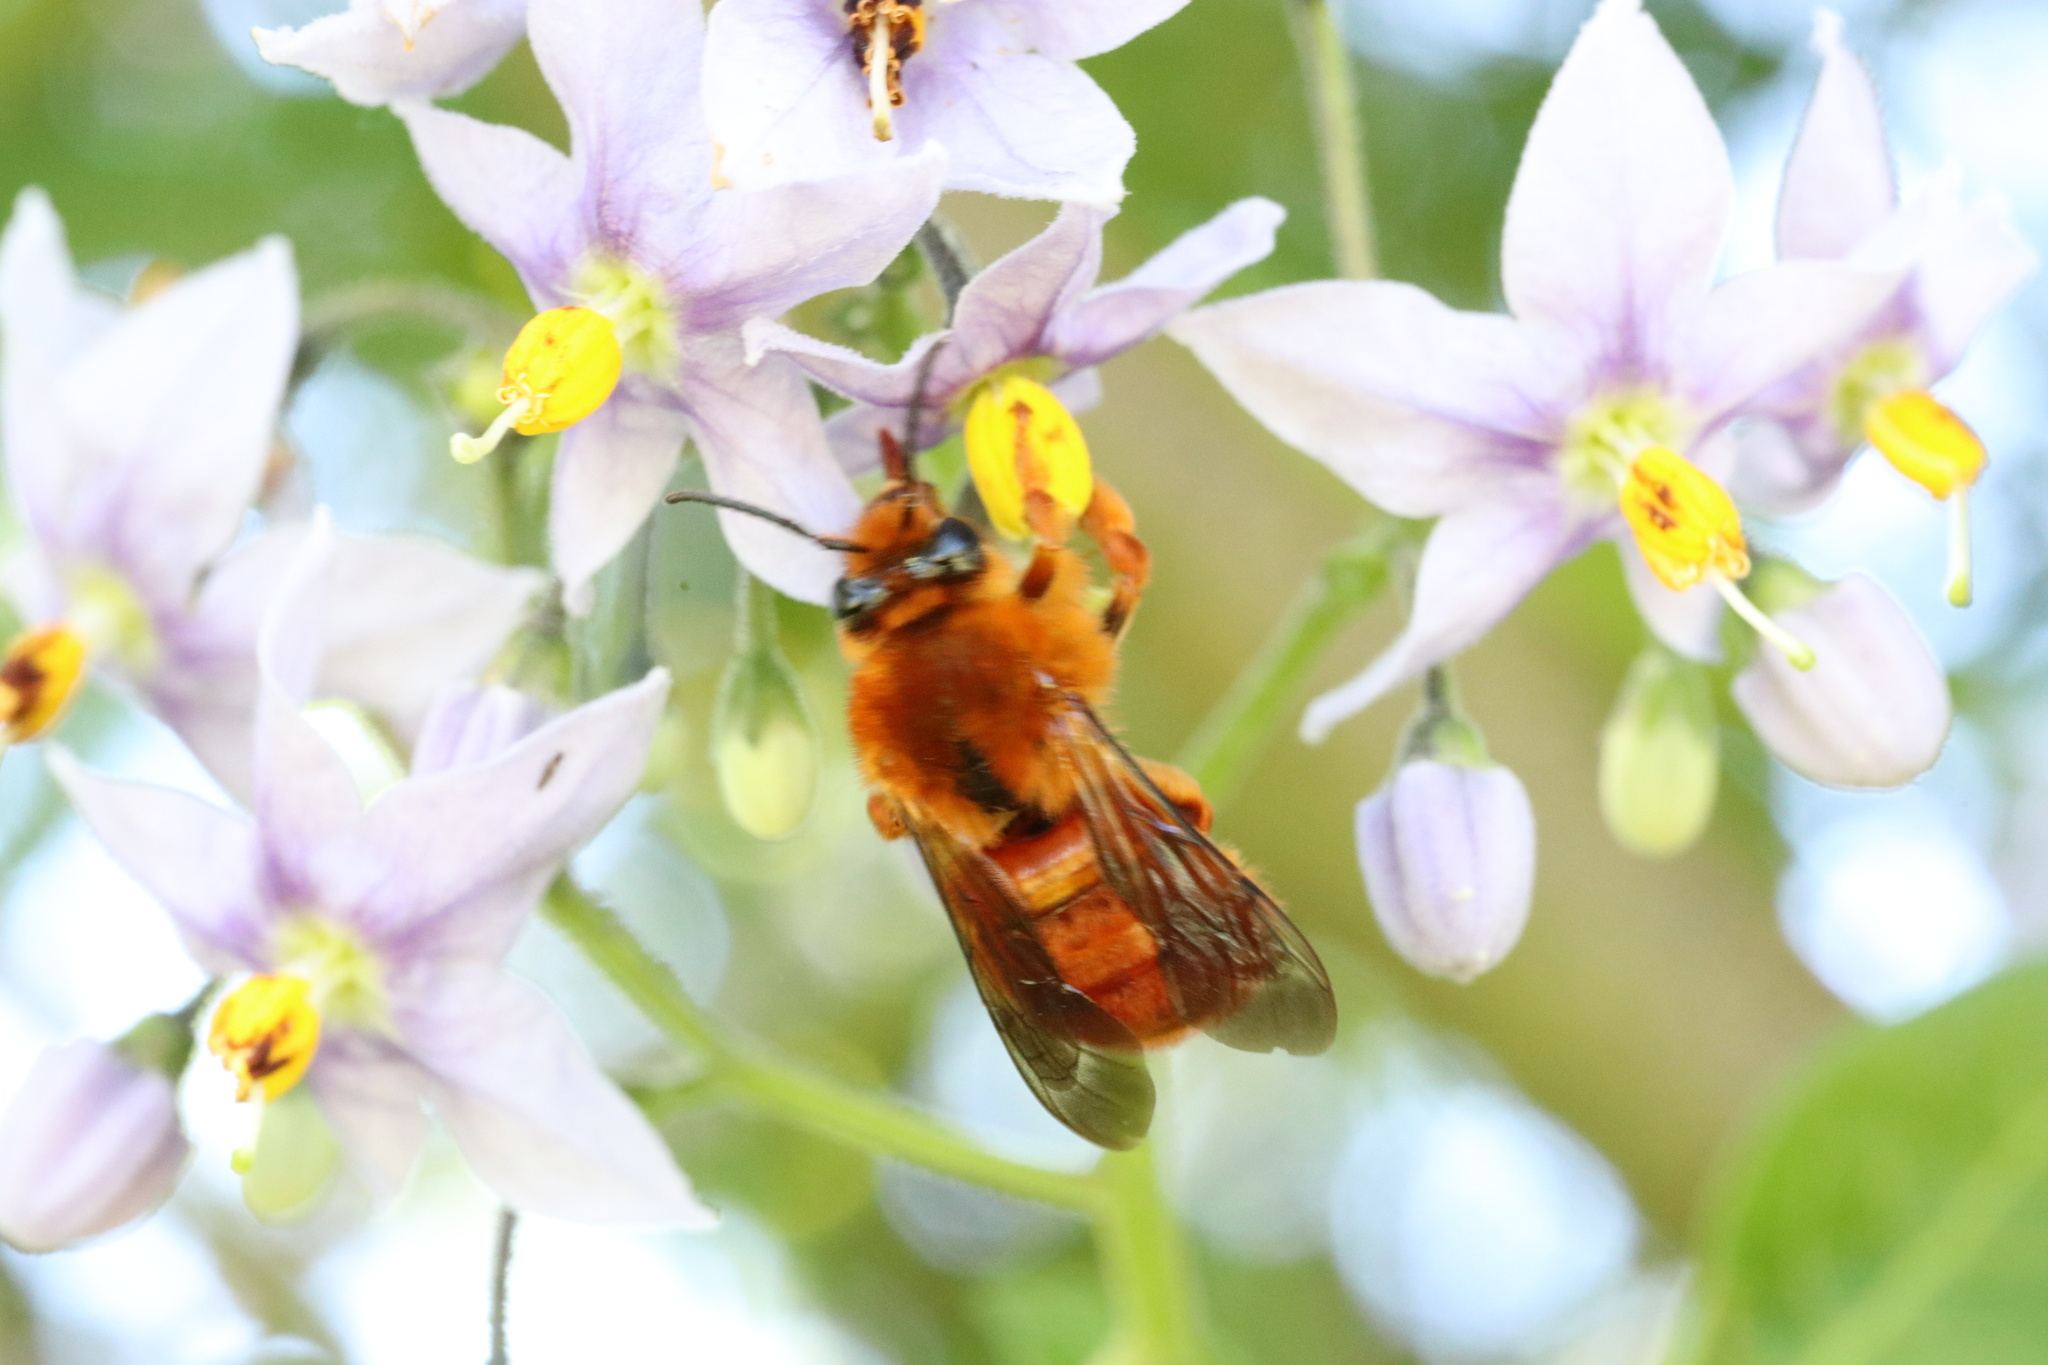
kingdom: Animalia
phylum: Arthropoda
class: Insecta
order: Hymenoptera
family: Colletidae
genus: Diphaglossa
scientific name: Diphaglossa gayi
